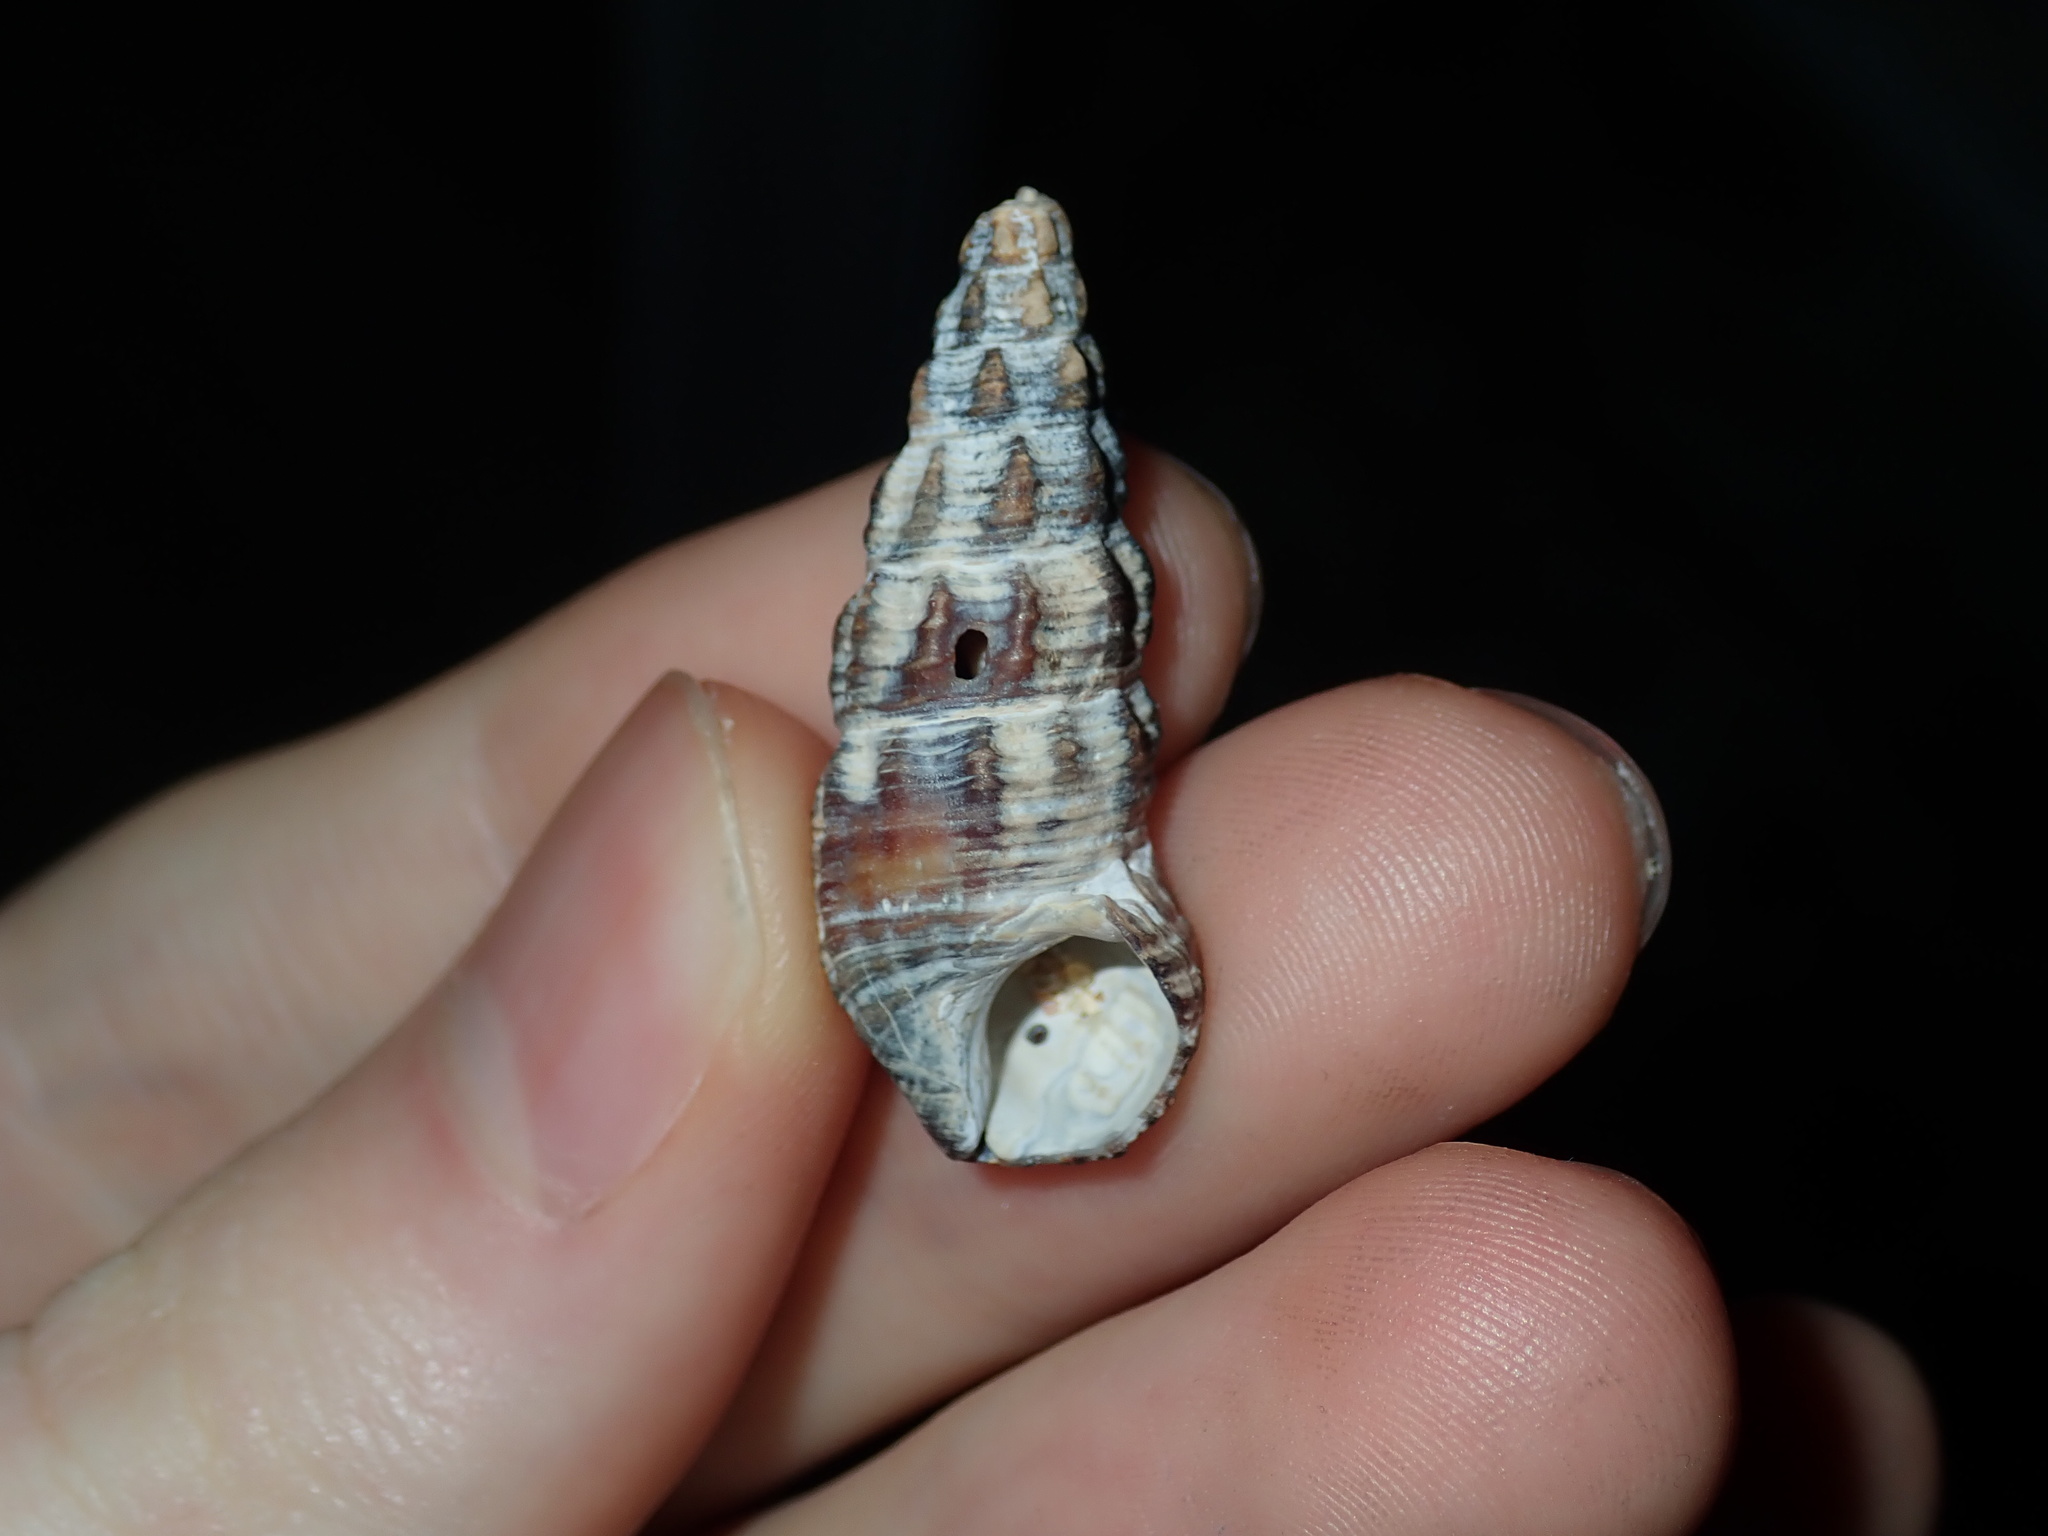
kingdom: Animalia
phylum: Mollusca
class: Gastropoda
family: Batillariidae
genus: Batillaria
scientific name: Batillaria australis
